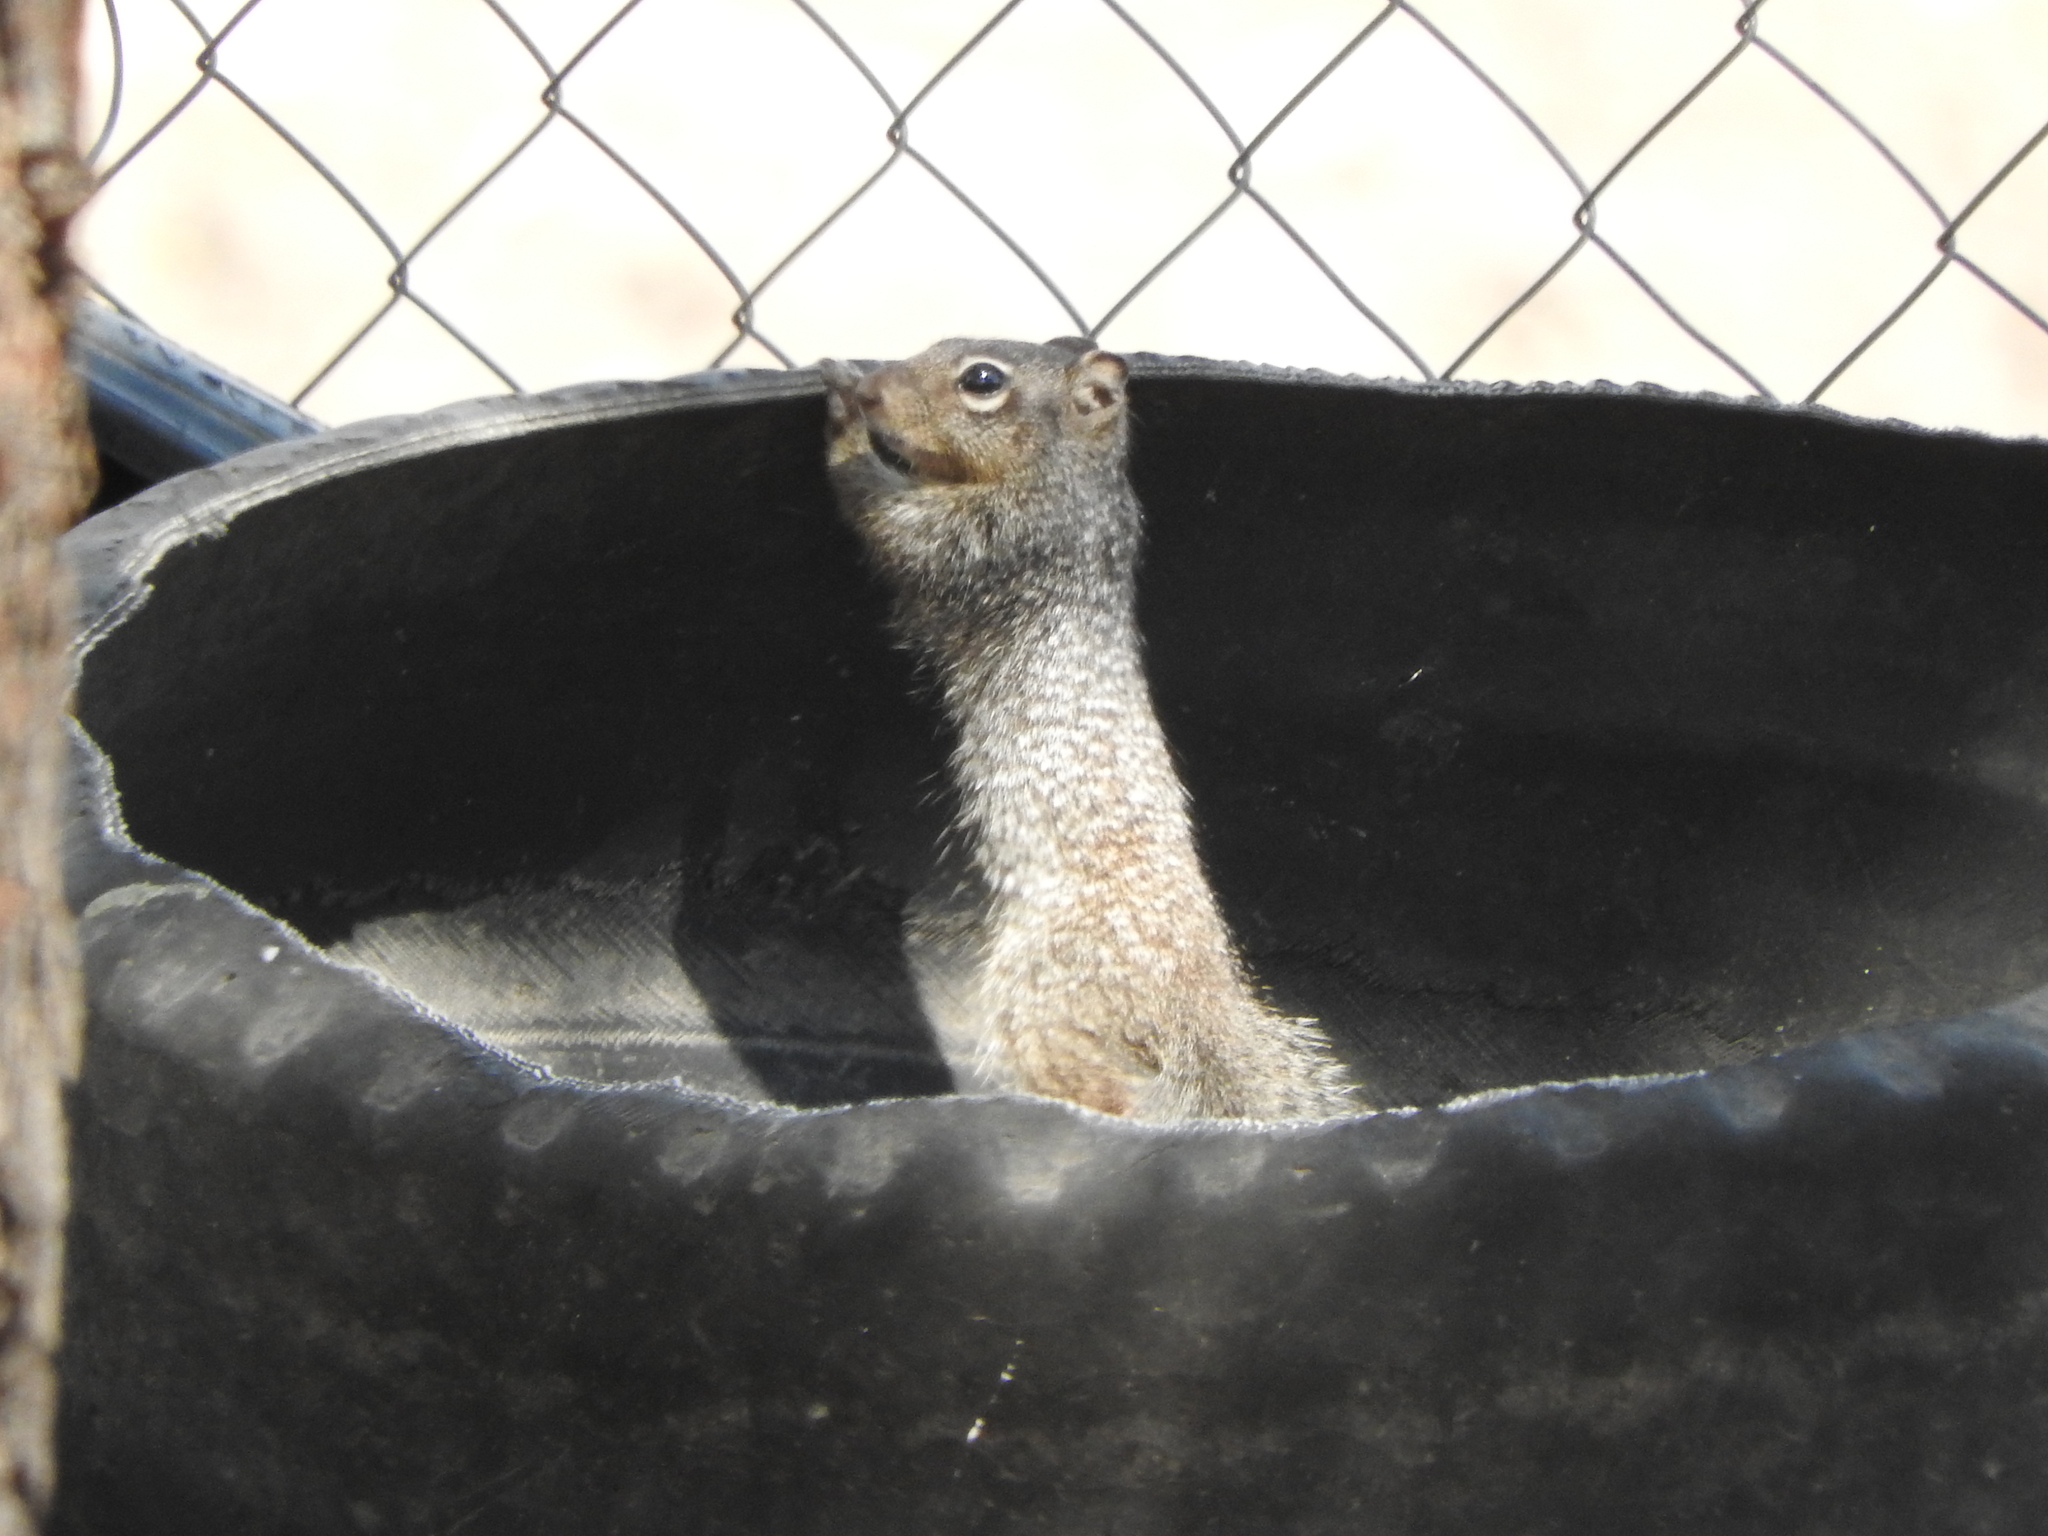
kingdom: Animalia
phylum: Chordata
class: Mammalia
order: Rodentia
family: Sciuridae
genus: Otospermophilus
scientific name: Otospermophilus variegatus
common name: Rock squirrel
